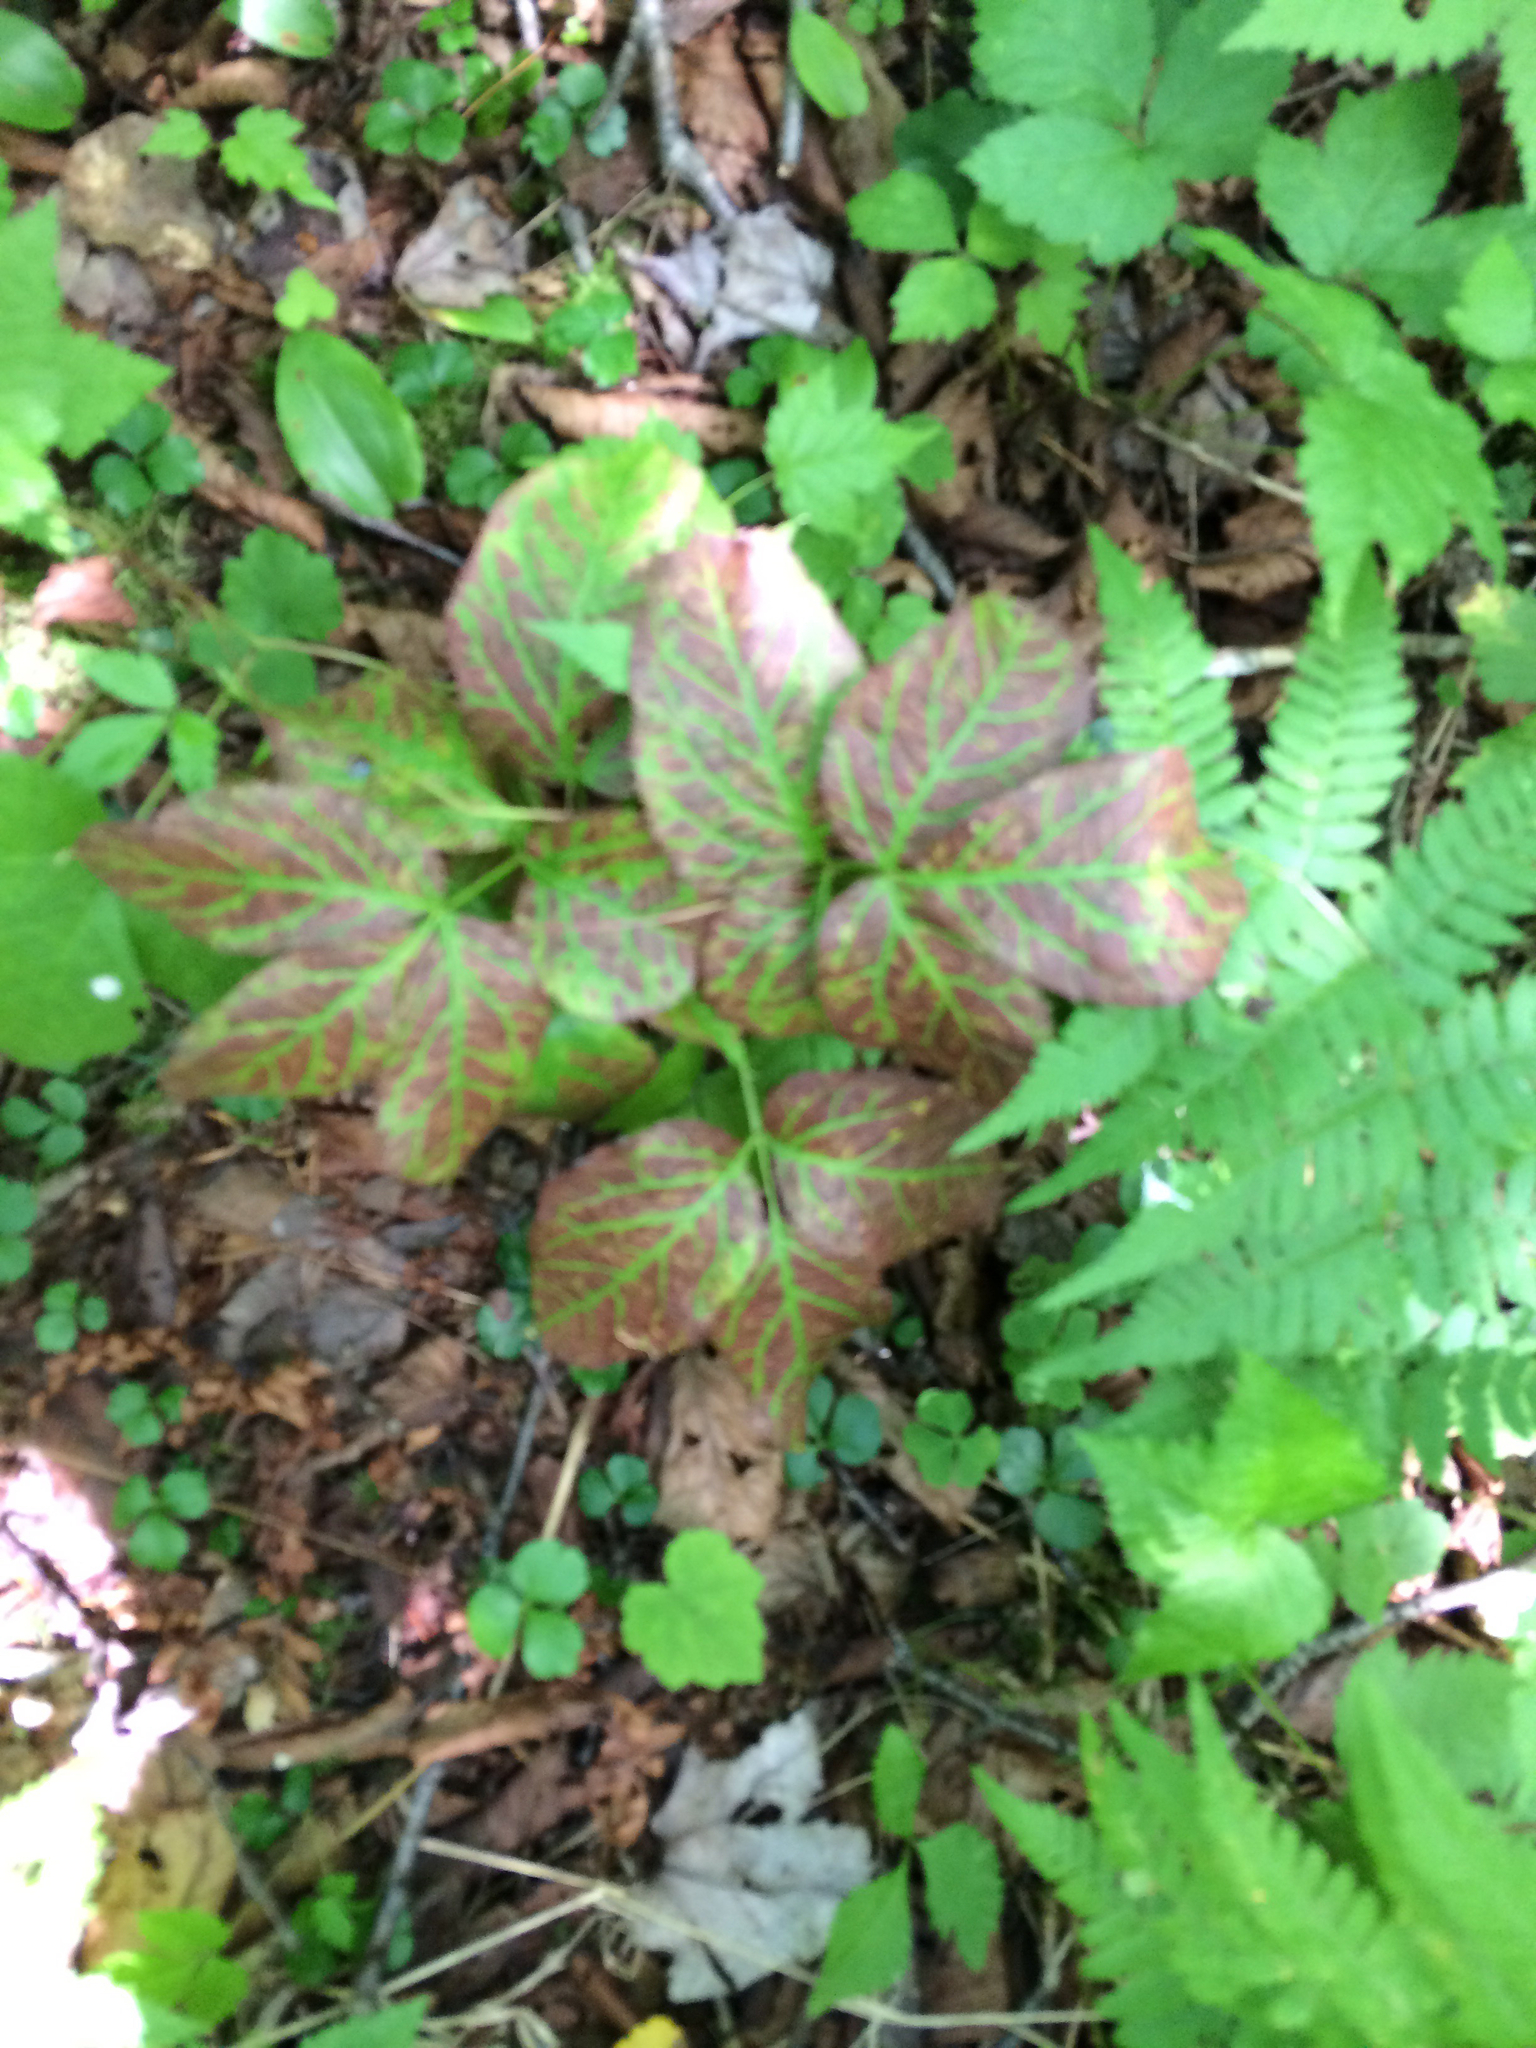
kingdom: Plantae
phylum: Tracheophyta
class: Magnoliopsida
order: Apiales
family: Araliaceae
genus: Aralia
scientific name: Aralia nudicaulis
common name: Wild sarsaparilla
